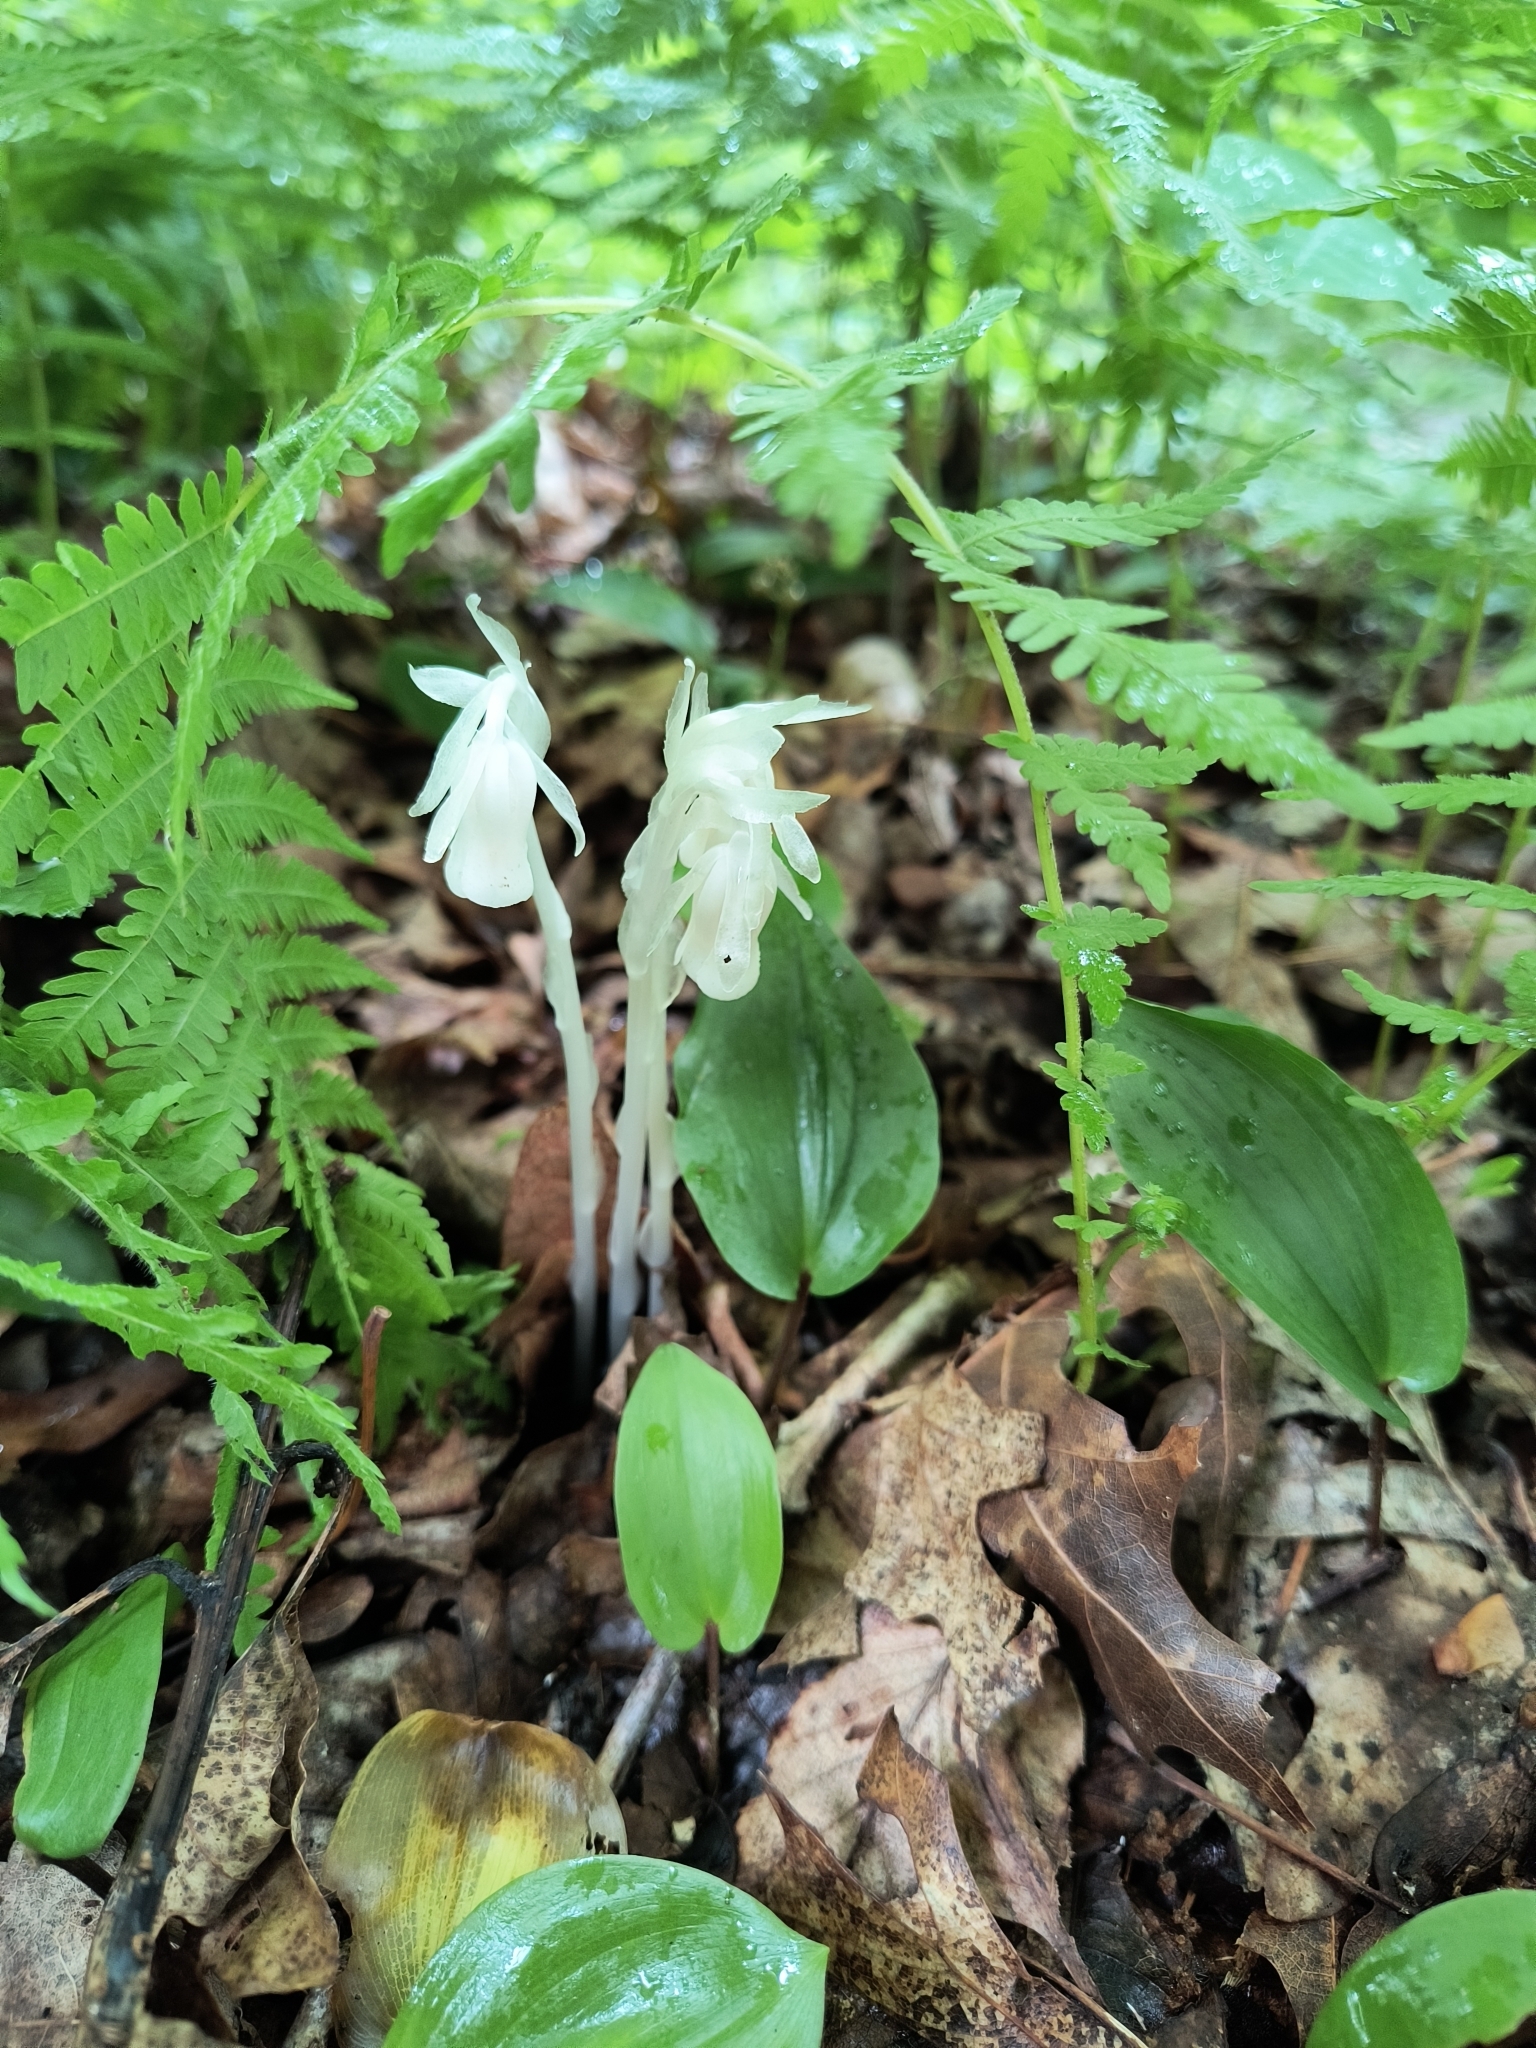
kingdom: Plantae
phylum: Tracheophyta
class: Magnoliopsida
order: Ericales
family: Ericaceae
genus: Monotropa
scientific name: Monotropa uniflora
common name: Convulsion root
